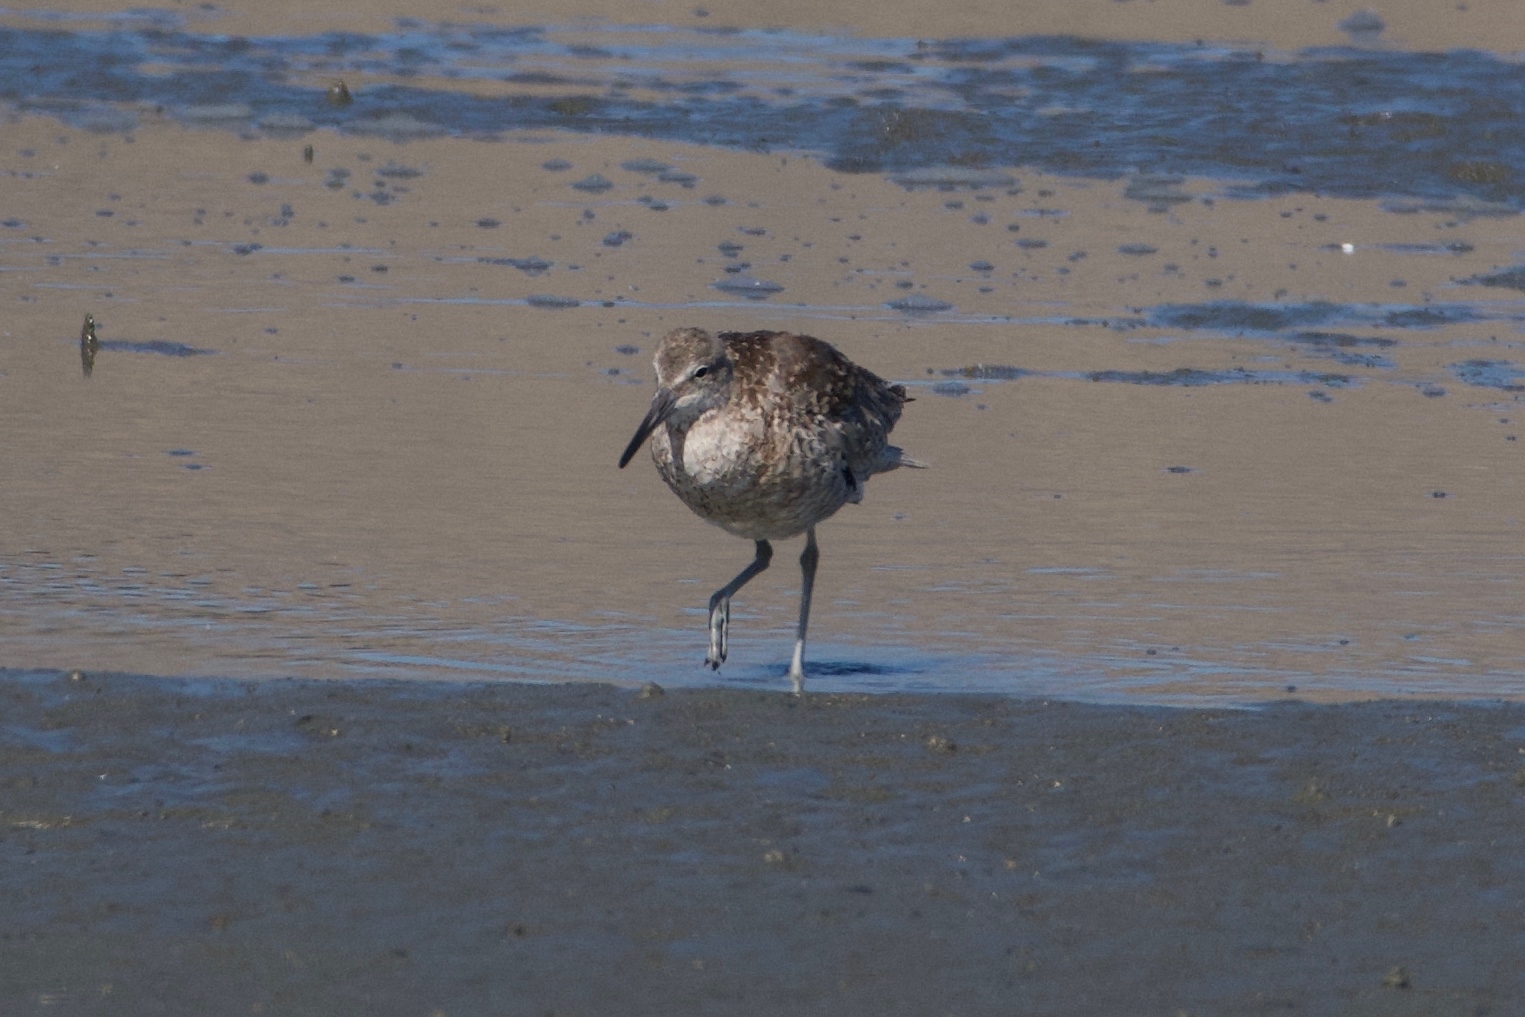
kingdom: Animalia
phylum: Chordata
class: Aves
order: Charadriiformes
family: Scolopacidae
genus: Tringa
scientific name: Tringa semipalmata
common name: Willet
